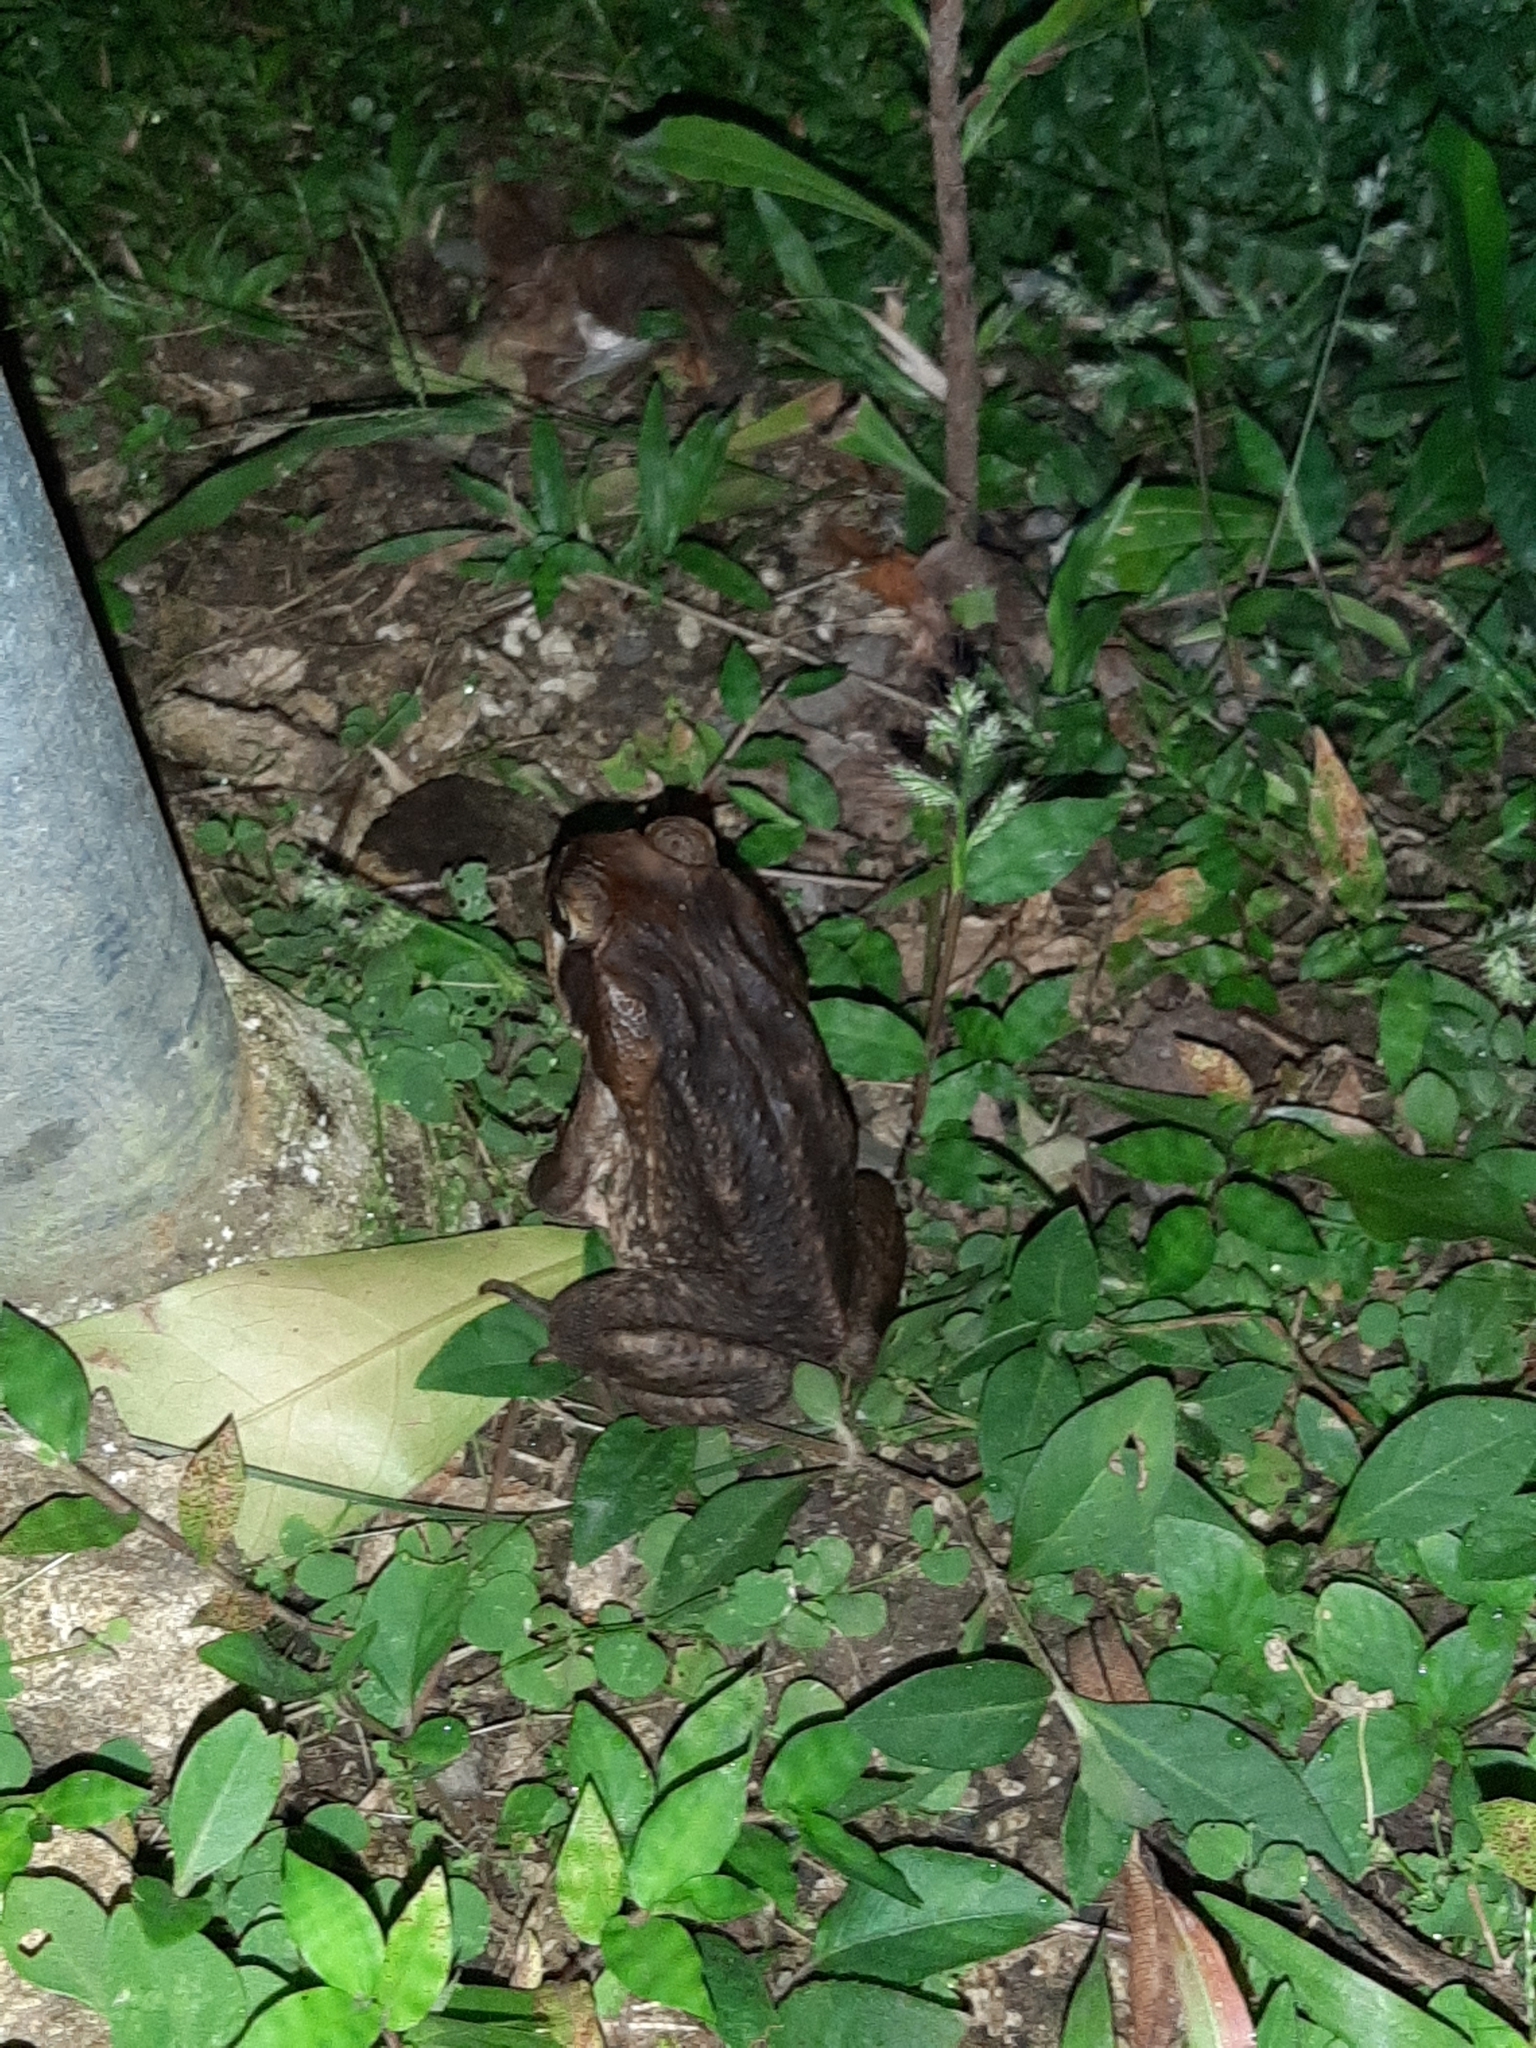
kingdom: Animalia
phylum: Chordata
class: Amphibia
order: Anura
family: Bufonidae
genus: Rhinella
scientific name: Rhinella horribilis
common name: Mesoamerican cane toad
